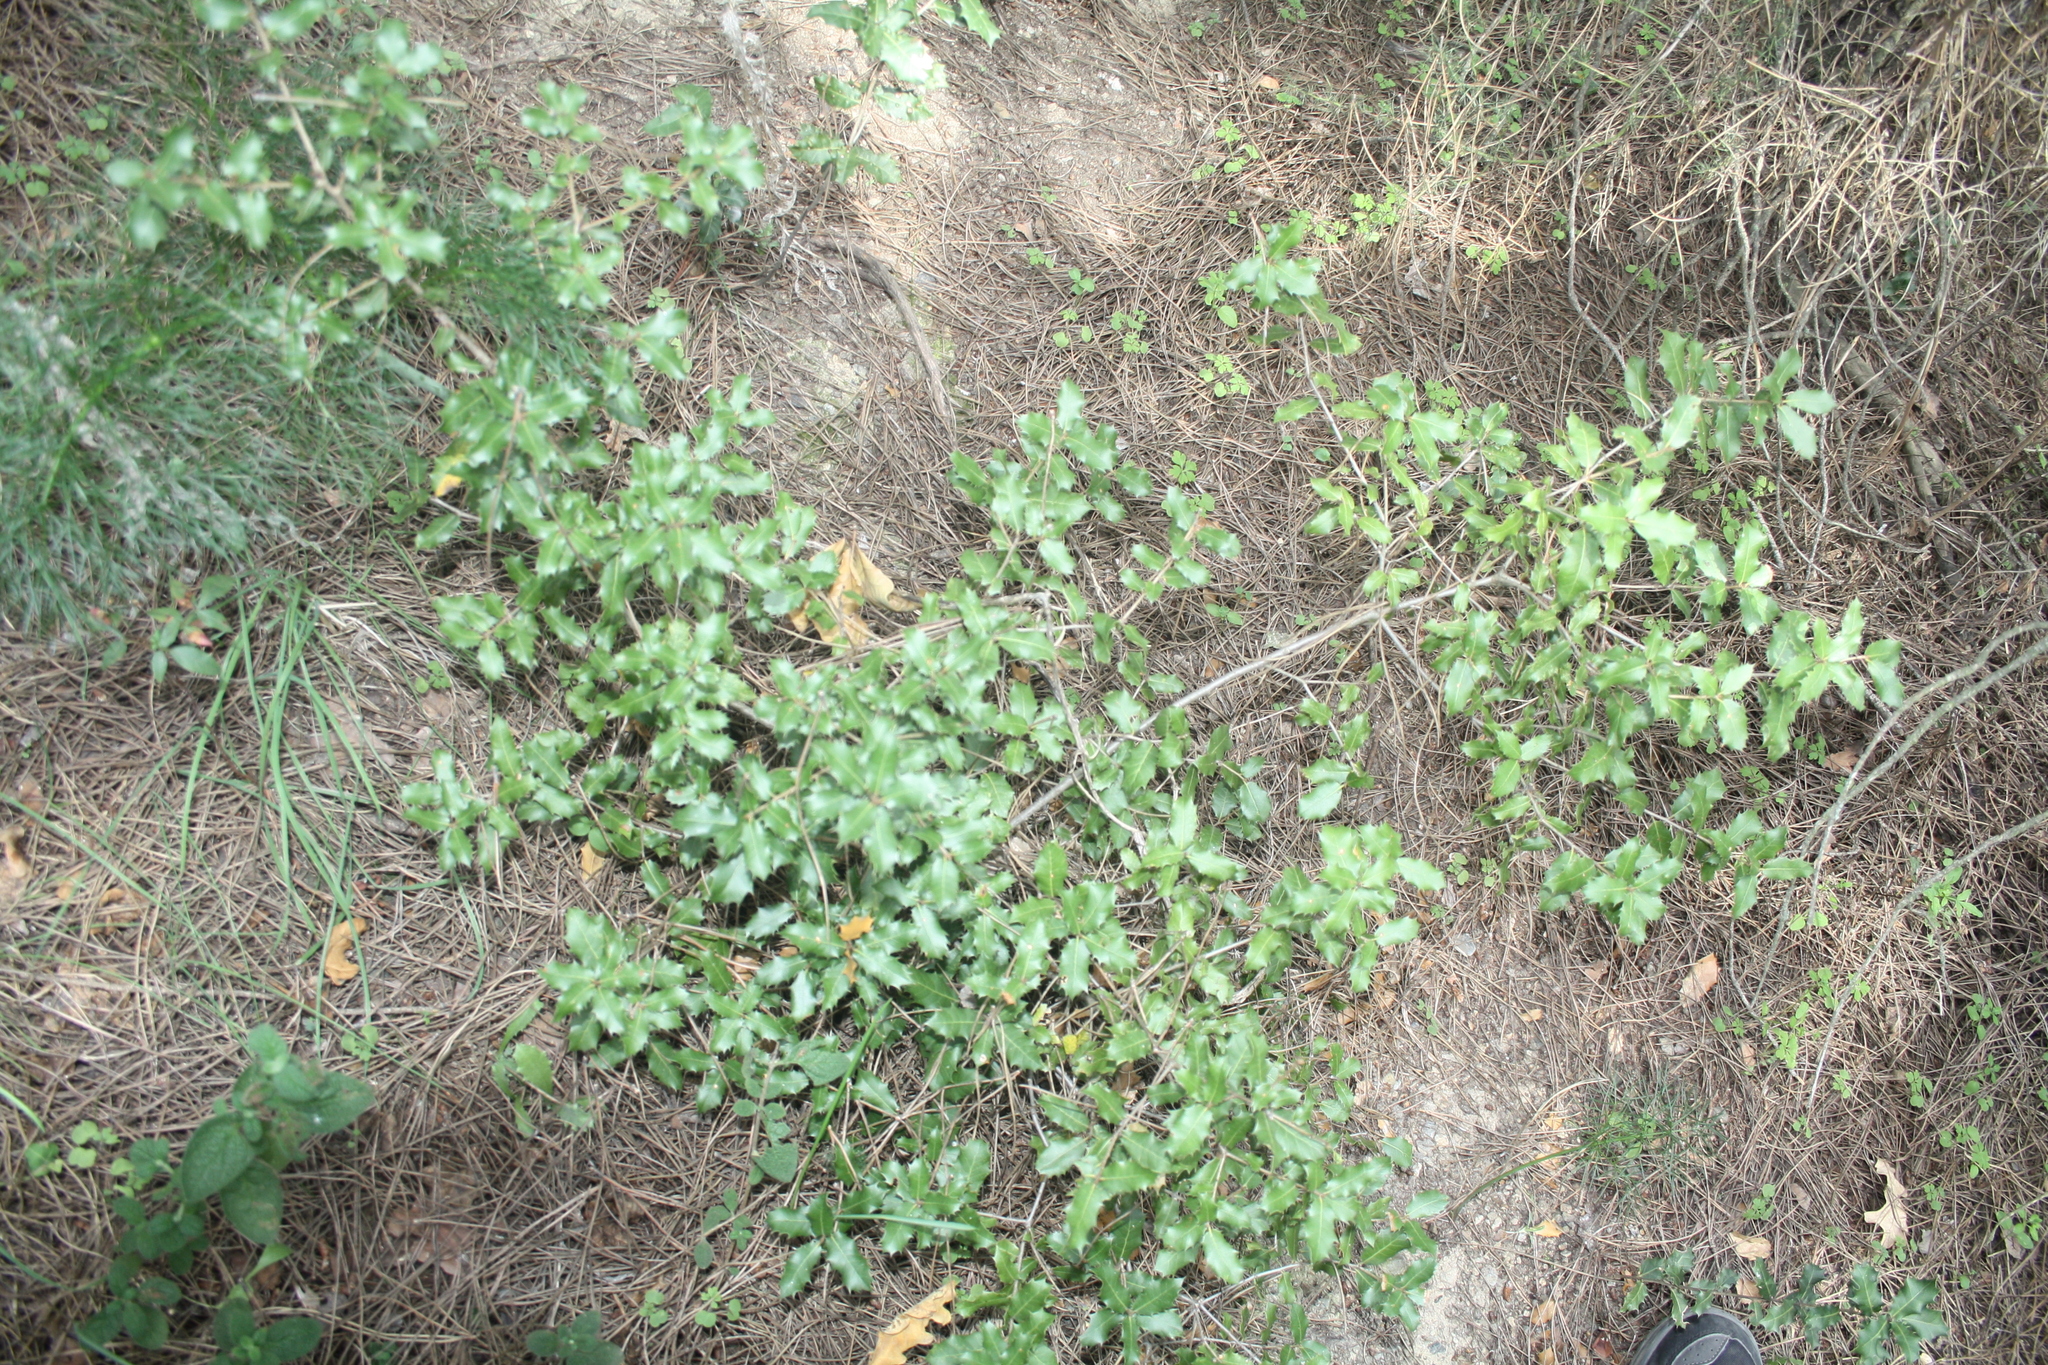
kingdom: Plantae
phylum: Tracheophyta
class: Magnoliopsida
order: Fagales
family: Fagaceae
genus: Quercus
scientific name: Quercus coccifera
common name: Kermes oak
